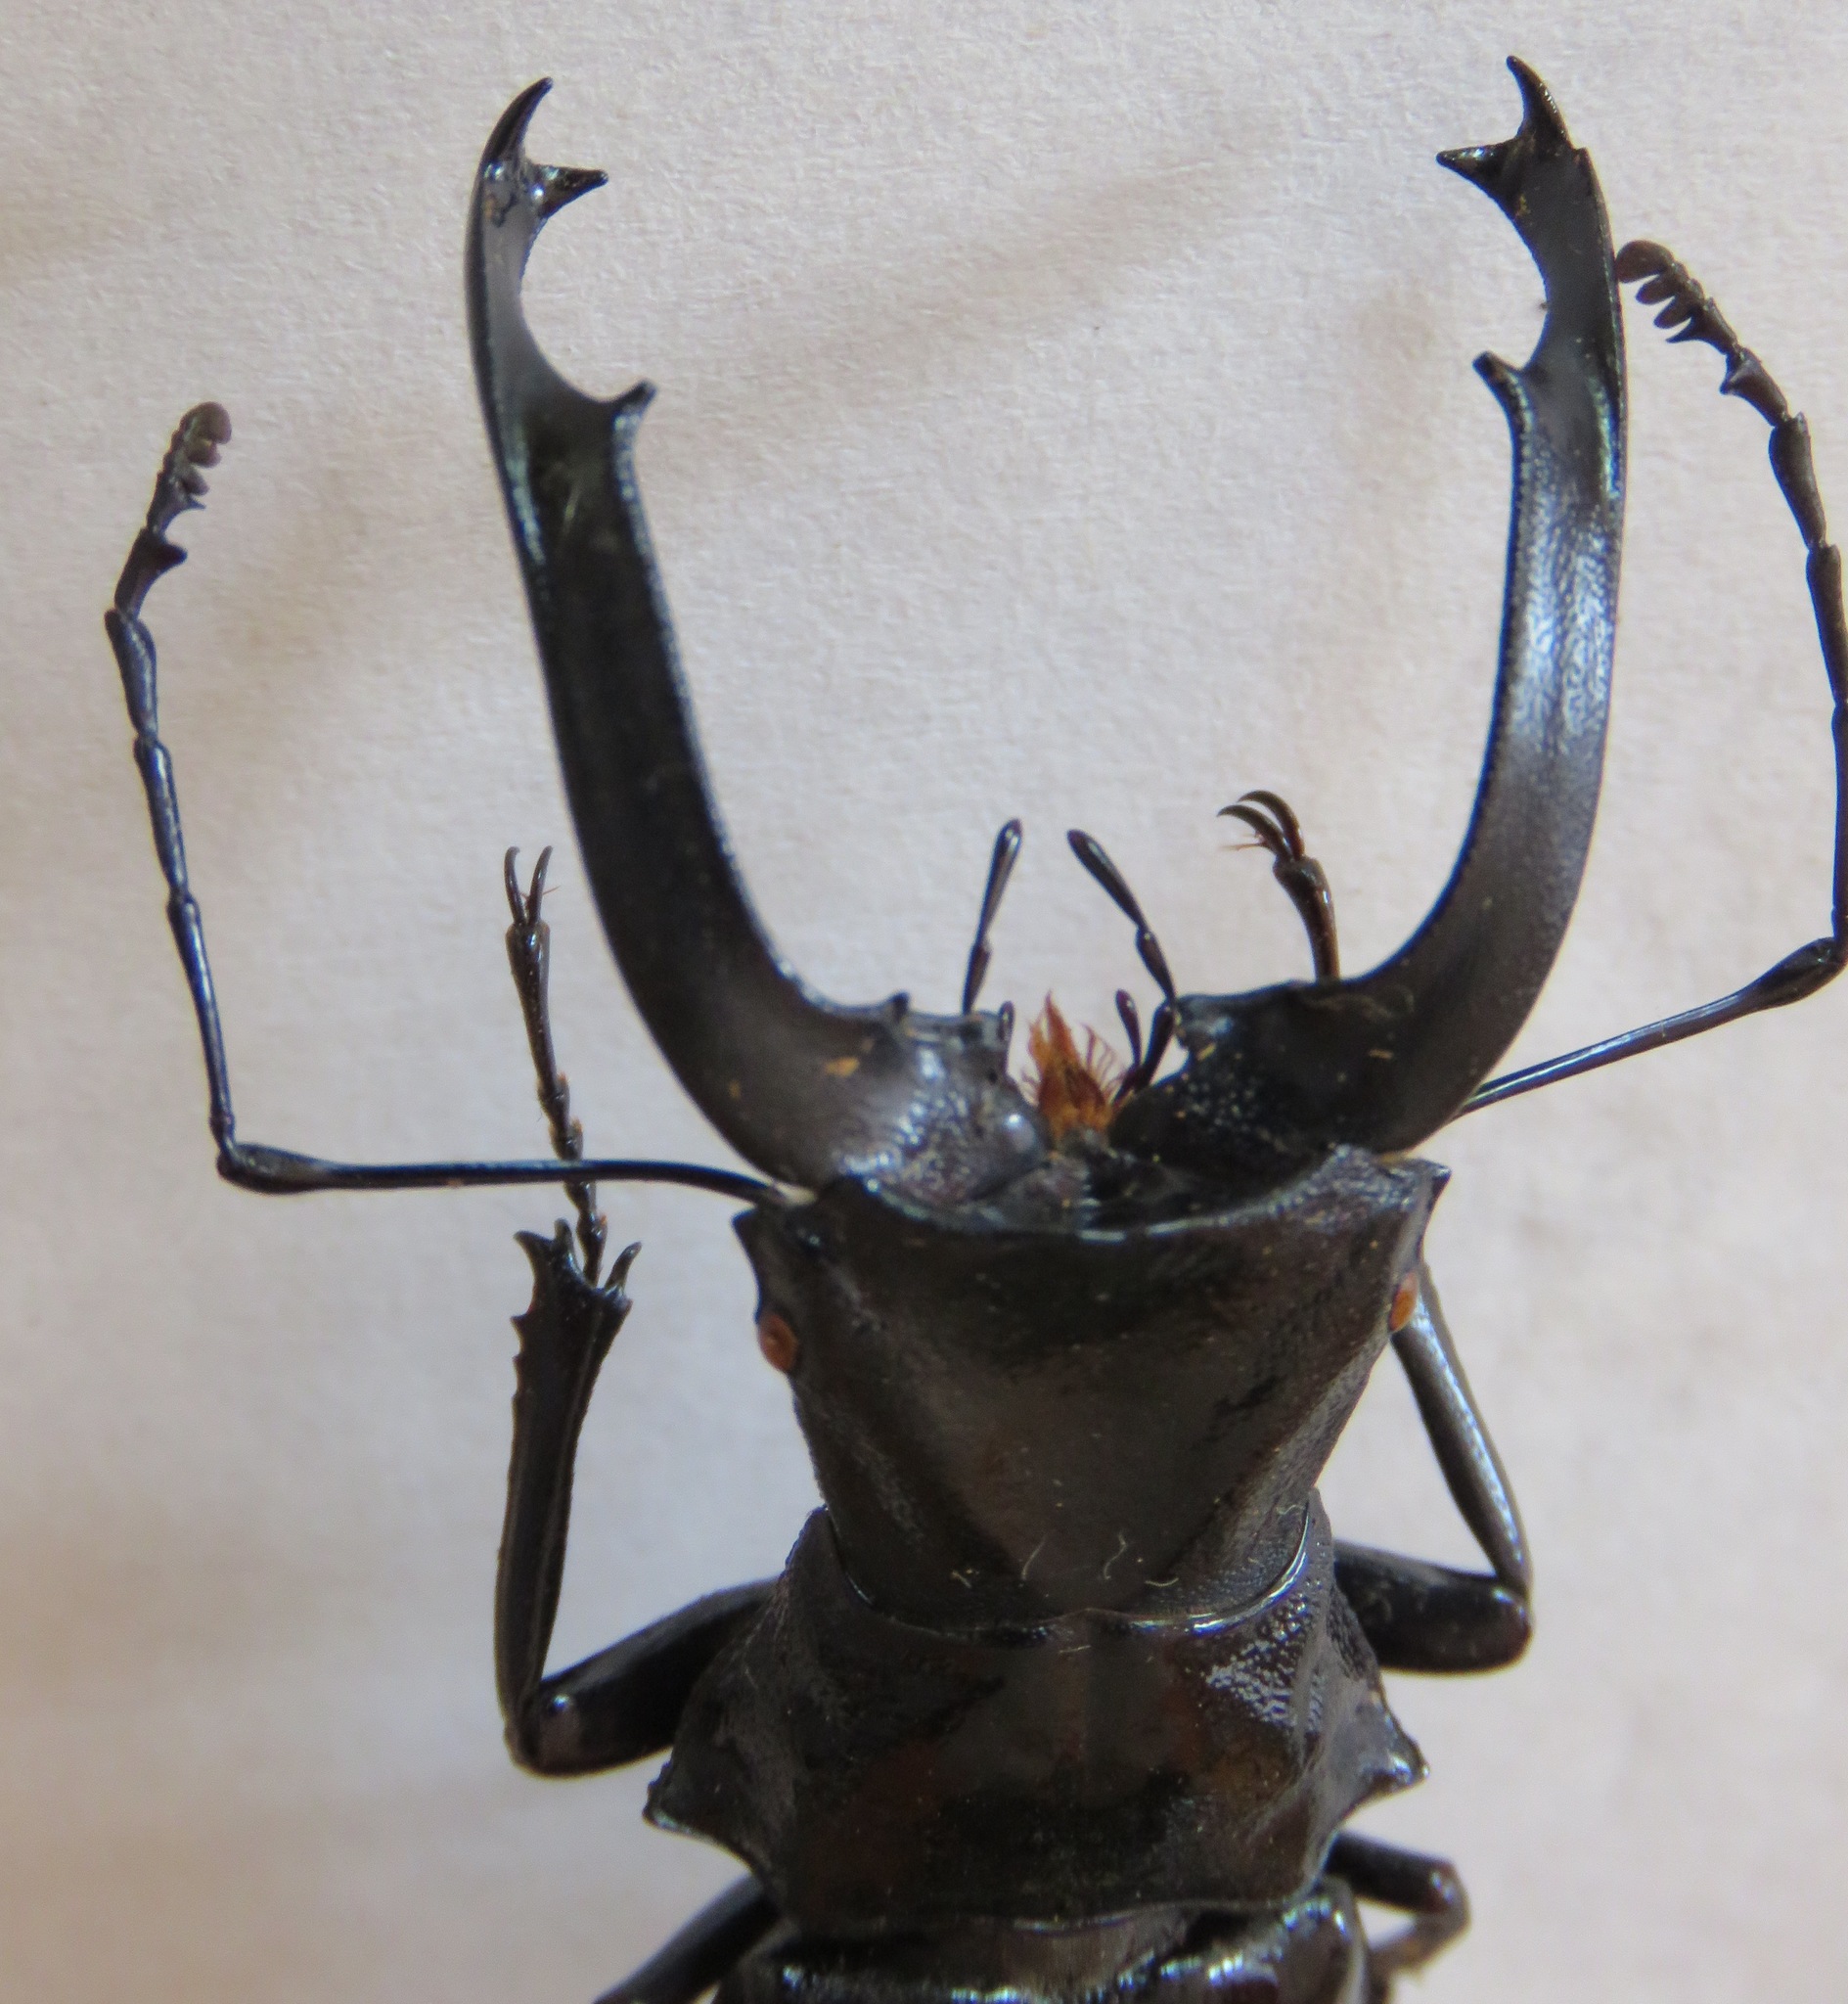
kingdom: Animalia
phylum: Arthropoda
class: Insecta
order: Coleoptera
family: Lucanidae
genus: Cantharolethrus
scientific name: Cantharolethrus luxerii
